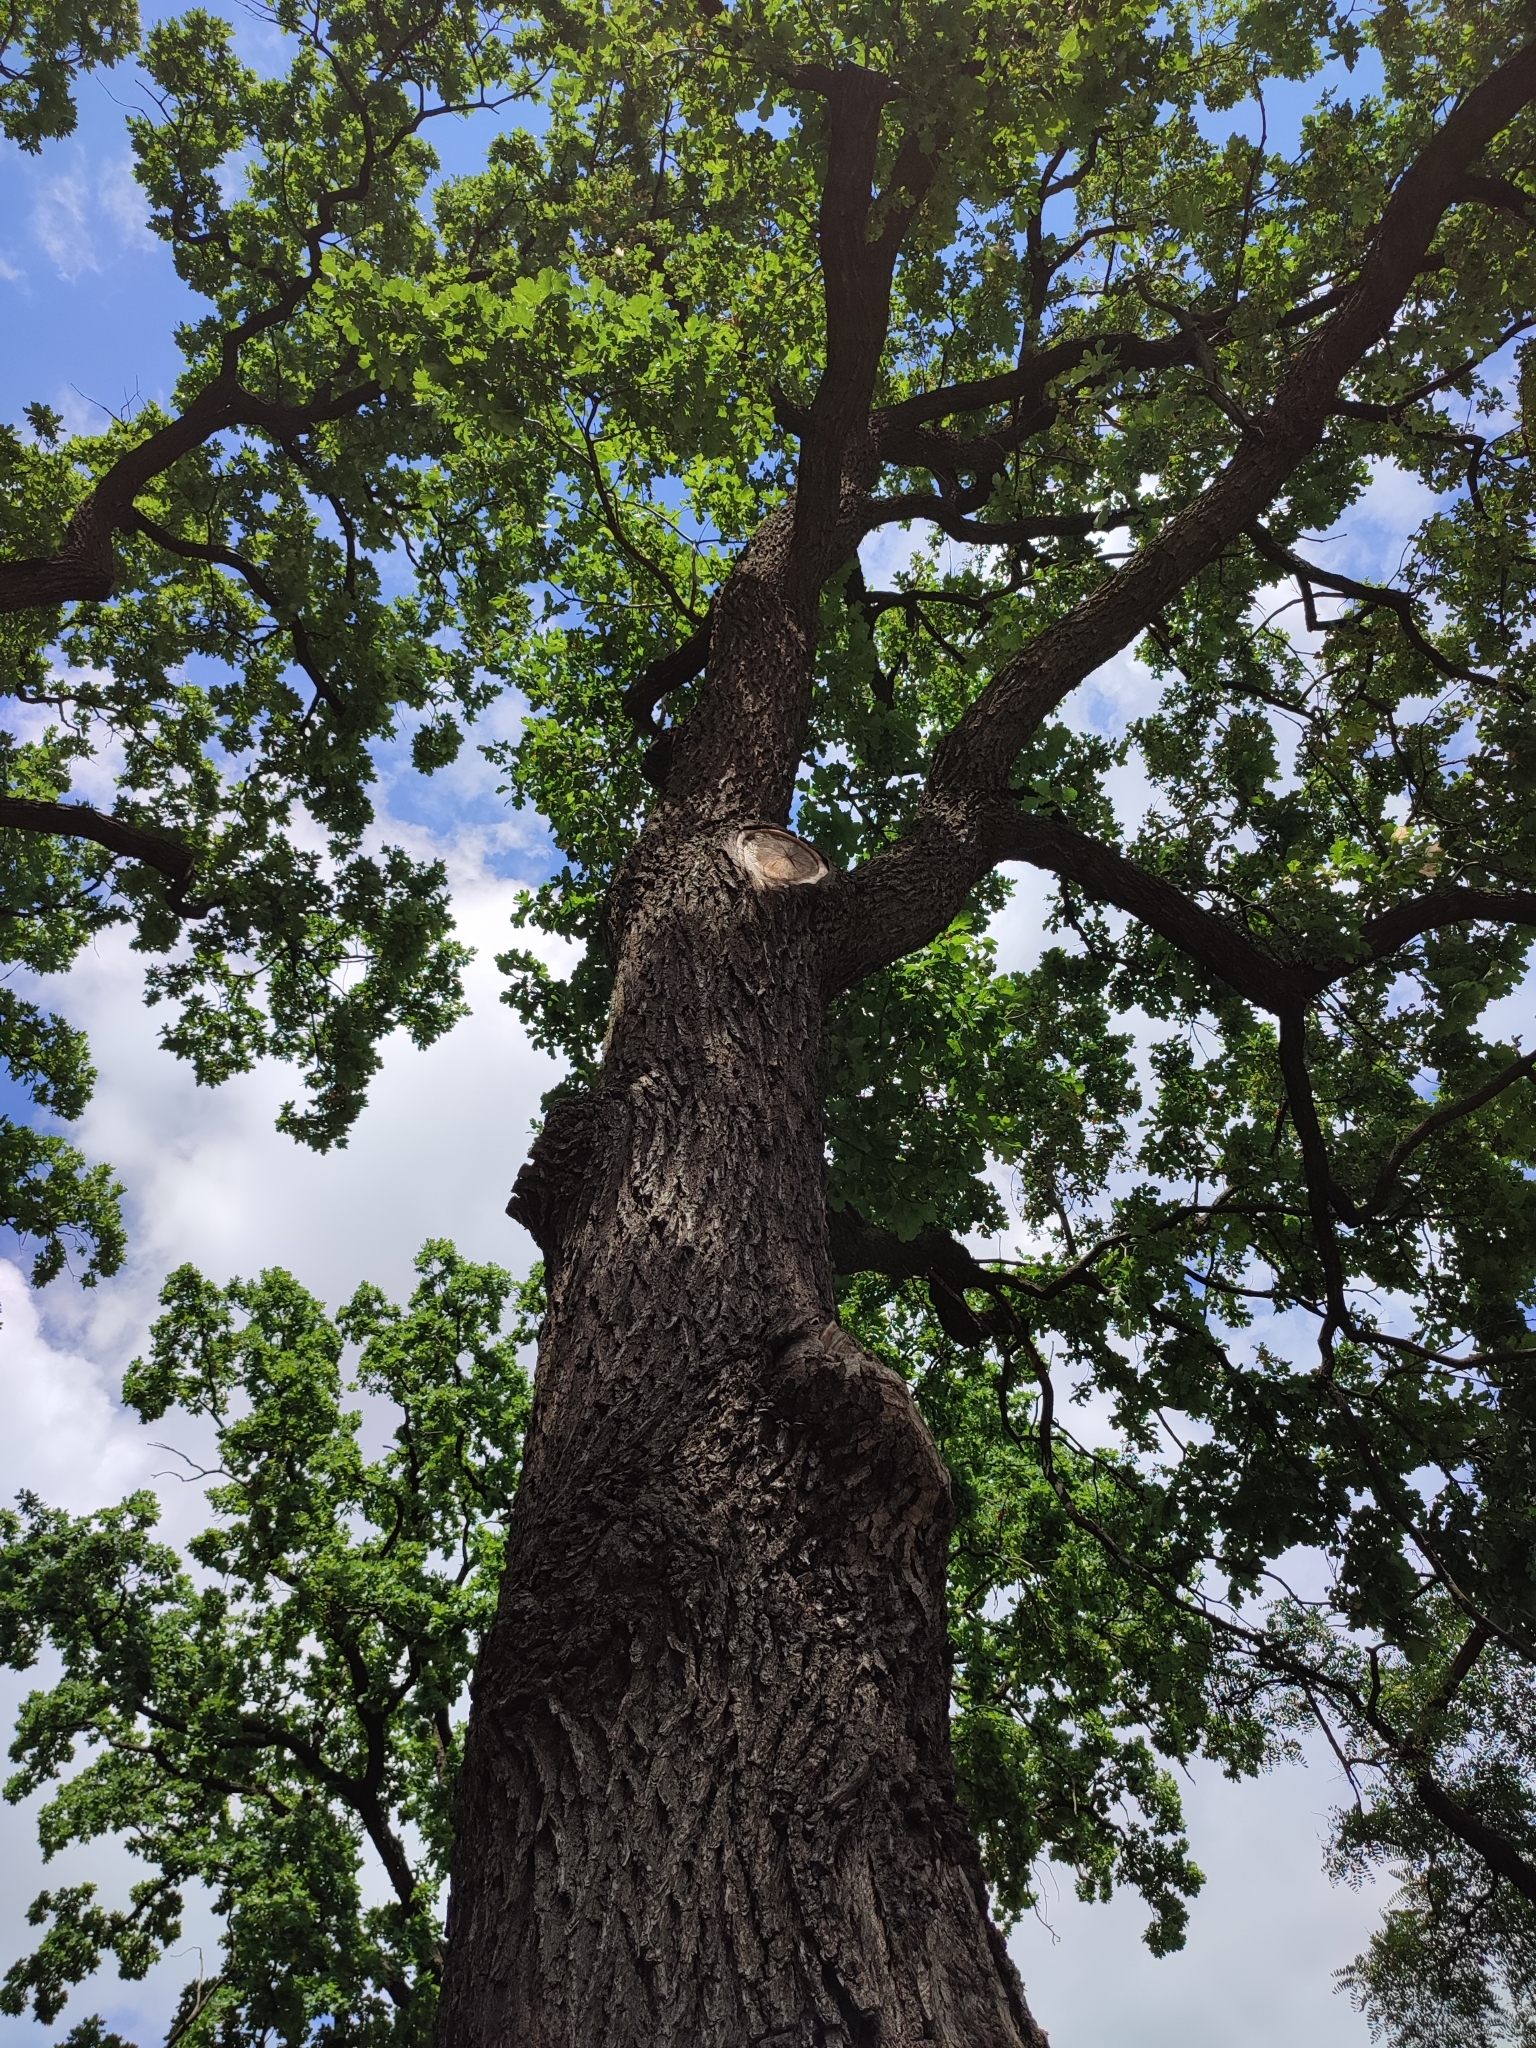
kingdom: Plantae
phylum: Tracheophyta
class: Magnoliopsida
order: Fagales
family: Fagaceae
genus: Quercus
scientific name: Quercus robur
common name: Pedunculate oak
